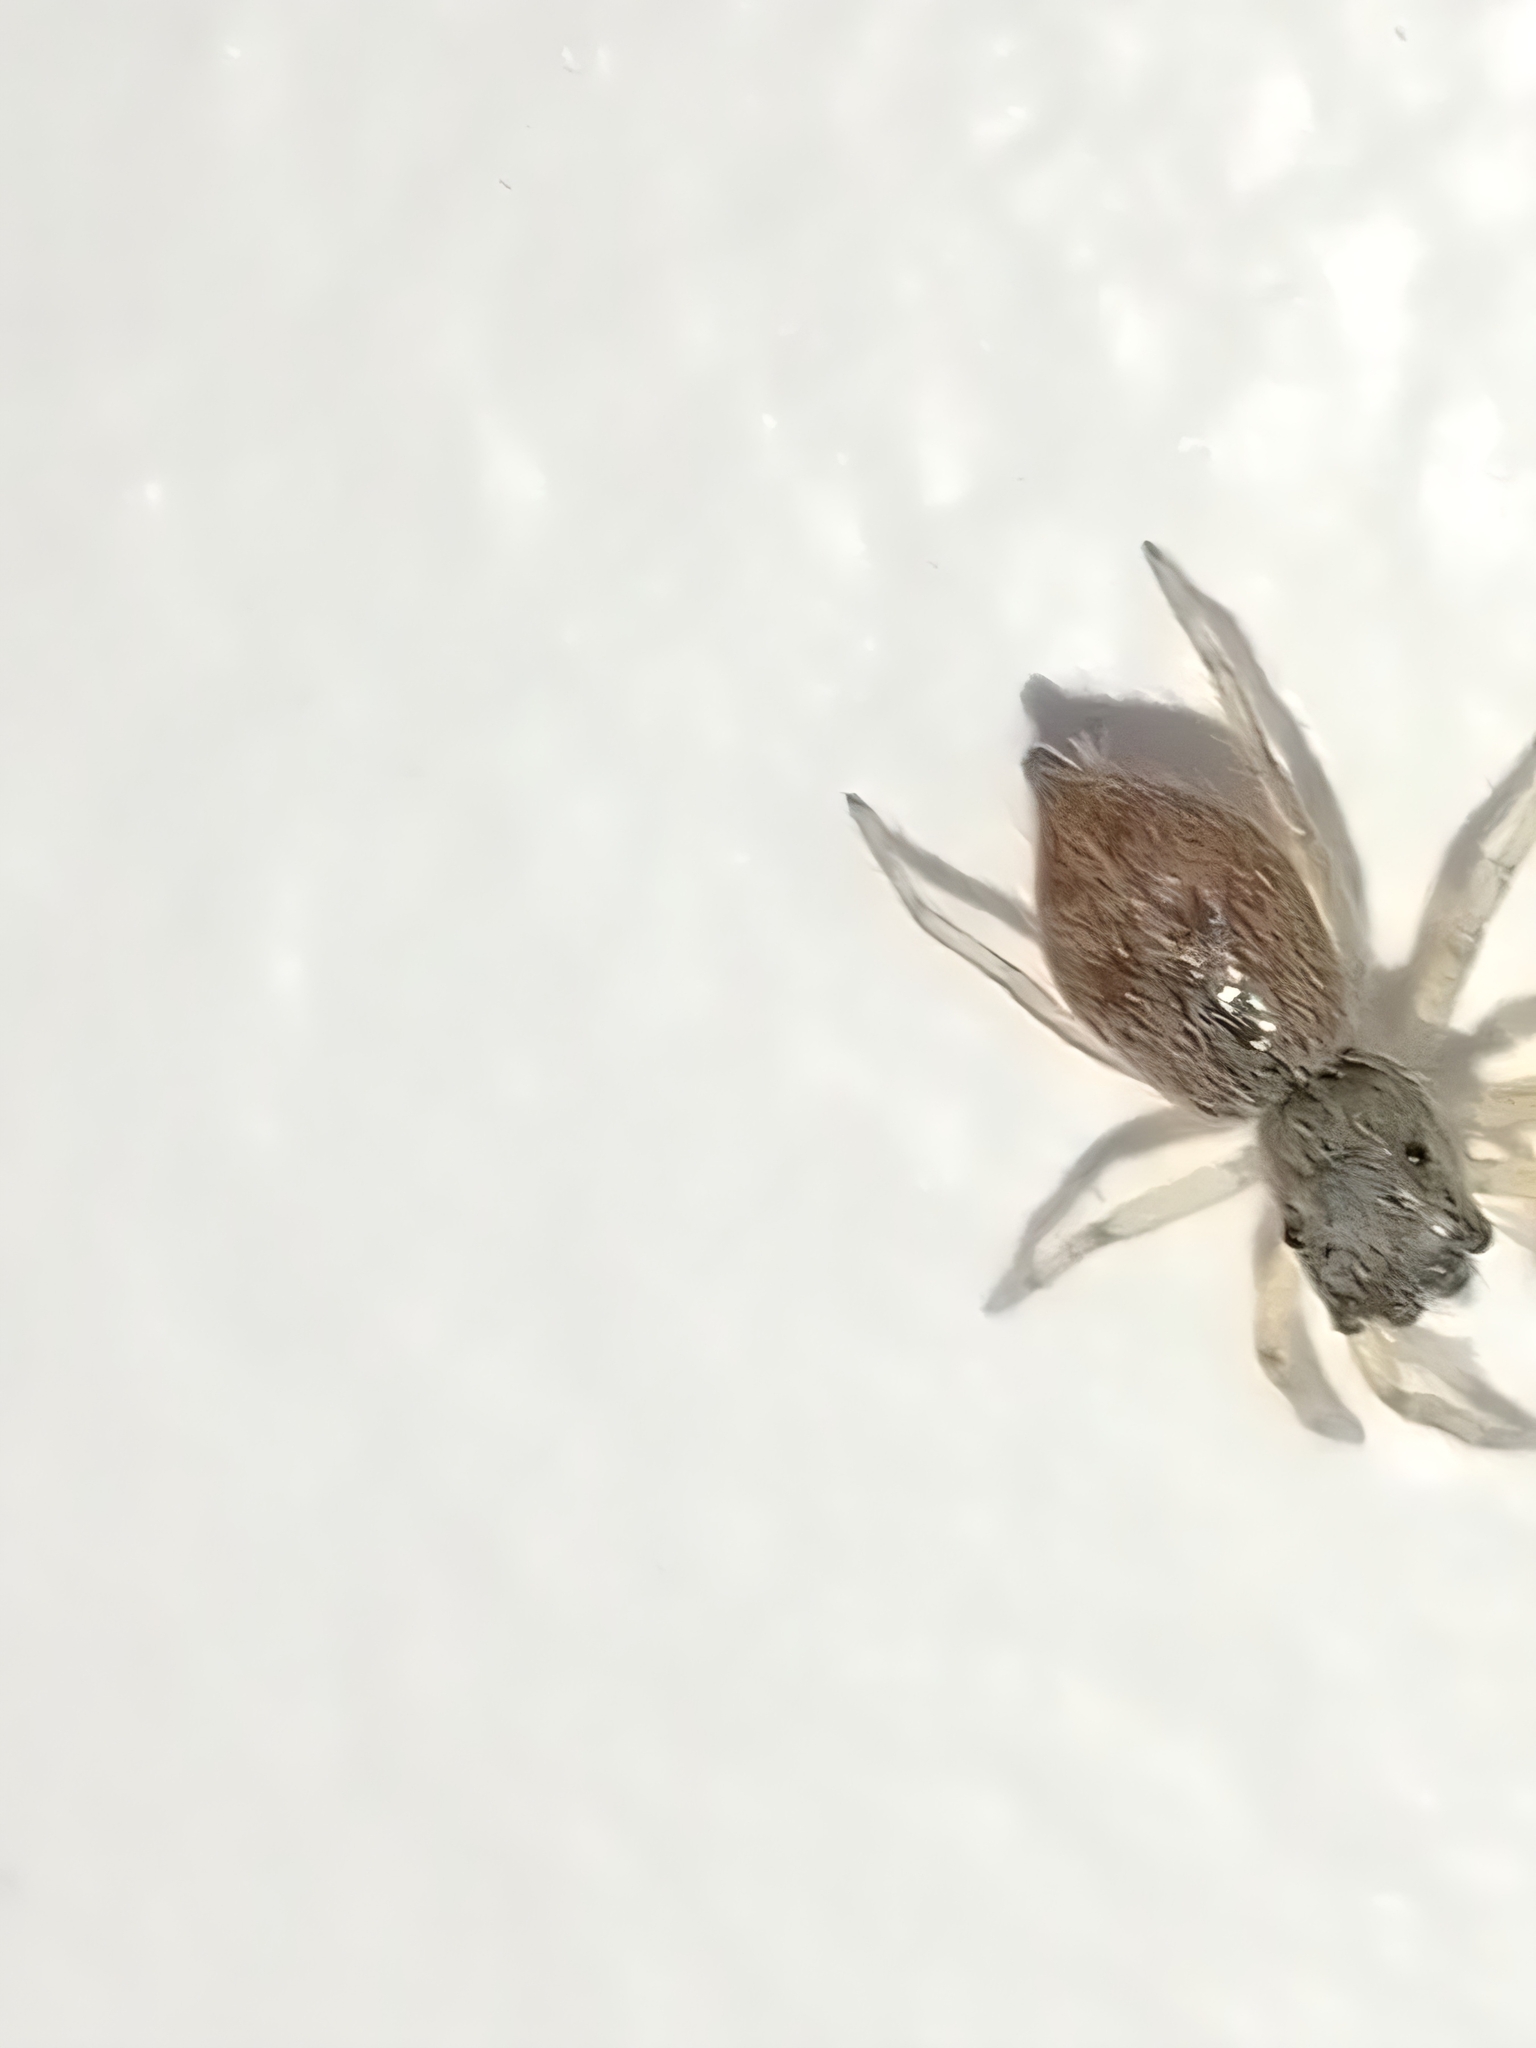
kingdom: Animalia
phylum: Arthropoda
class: Arachnida
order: Araneae
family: Salticidae
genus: Menemerus
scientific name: Menemerus bivittatus
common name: Gray wall jumper
